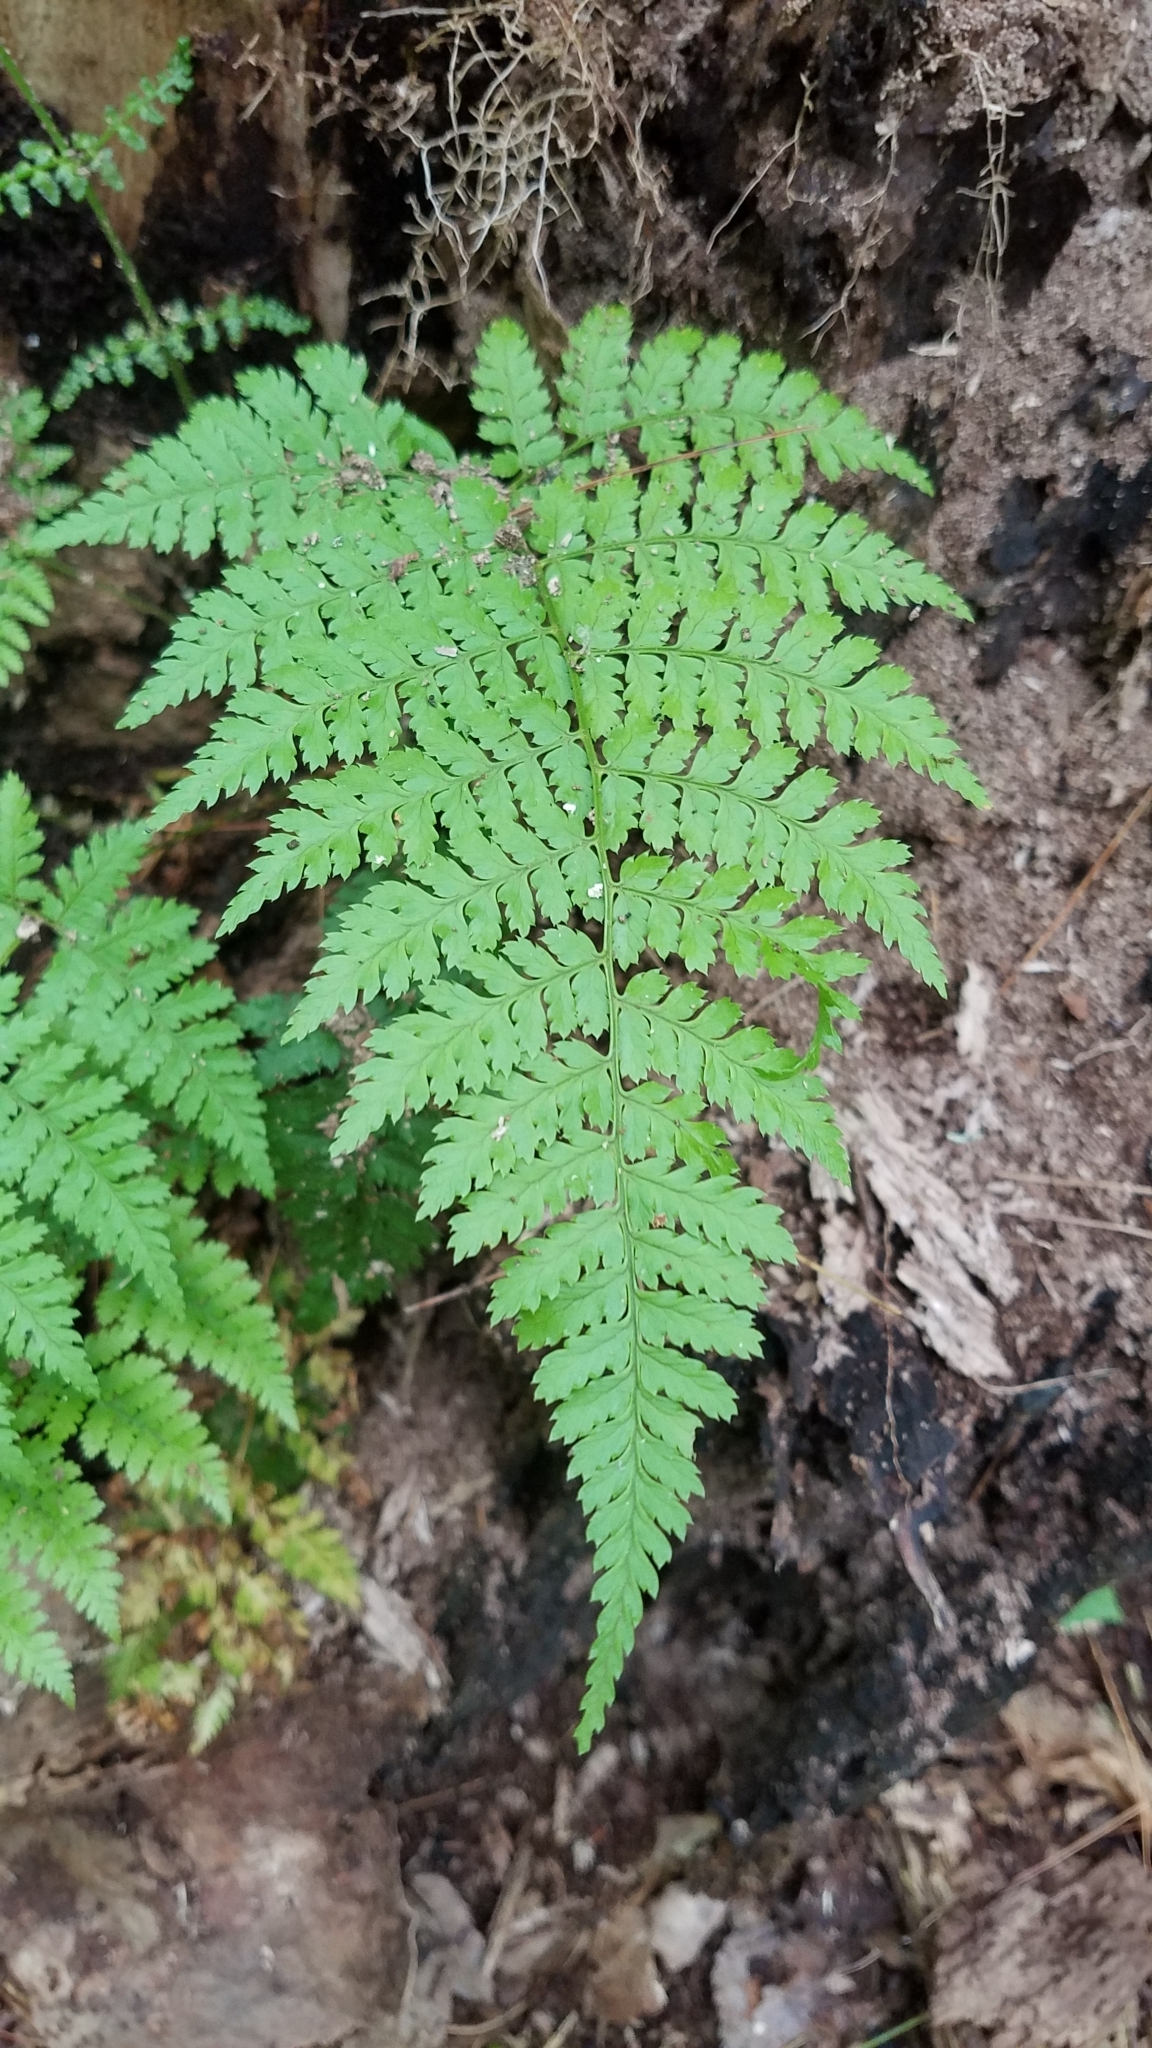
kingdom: Plantae
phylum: Tracheophyta
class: Polypodiopsida
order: Polypodiales
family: Dryopteridaceae
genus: Dryopteris
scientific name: Dryopteris intermedia
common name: Evergreen wood fern
